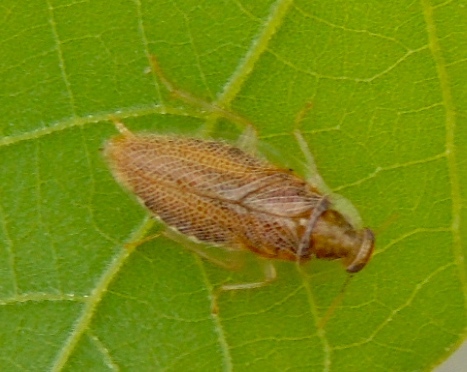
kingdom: Animalia
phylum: Arthropoda
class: Insecta
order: Blattodea
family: Ectobiidae
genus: Chorisoneura
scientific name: Chorisoneura
